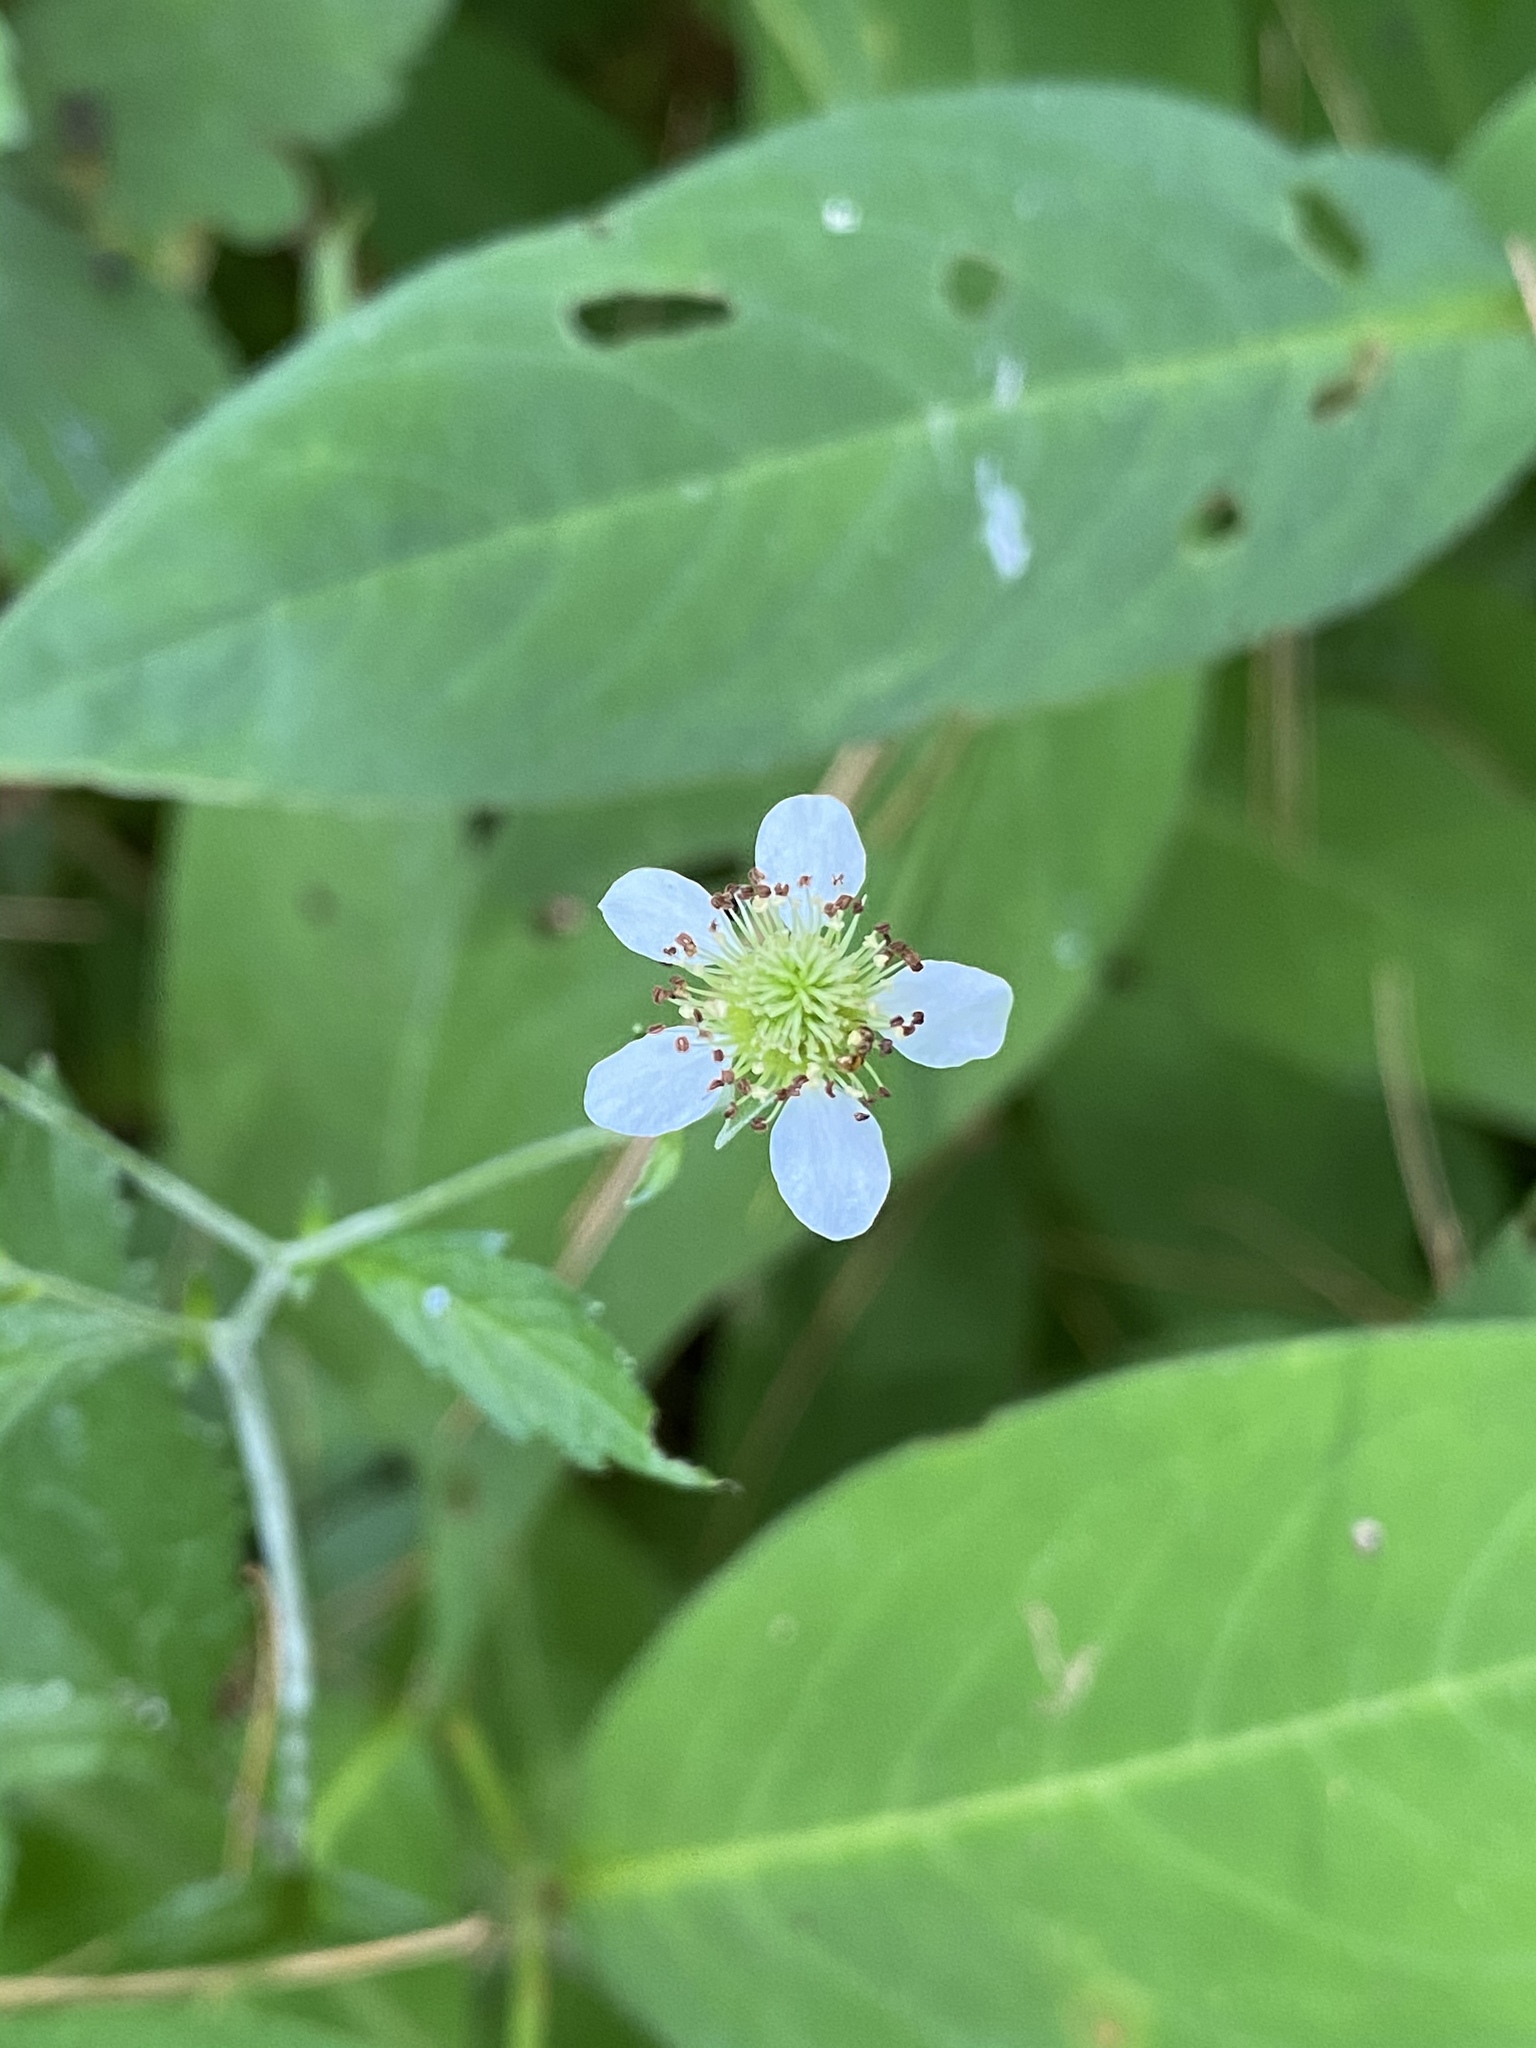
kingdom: Plantae
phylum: Tracheophyta
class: Magnoliopsida
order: Rosales
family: Rosaceae
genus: Geum
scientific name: Geum canadense
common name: White avens
